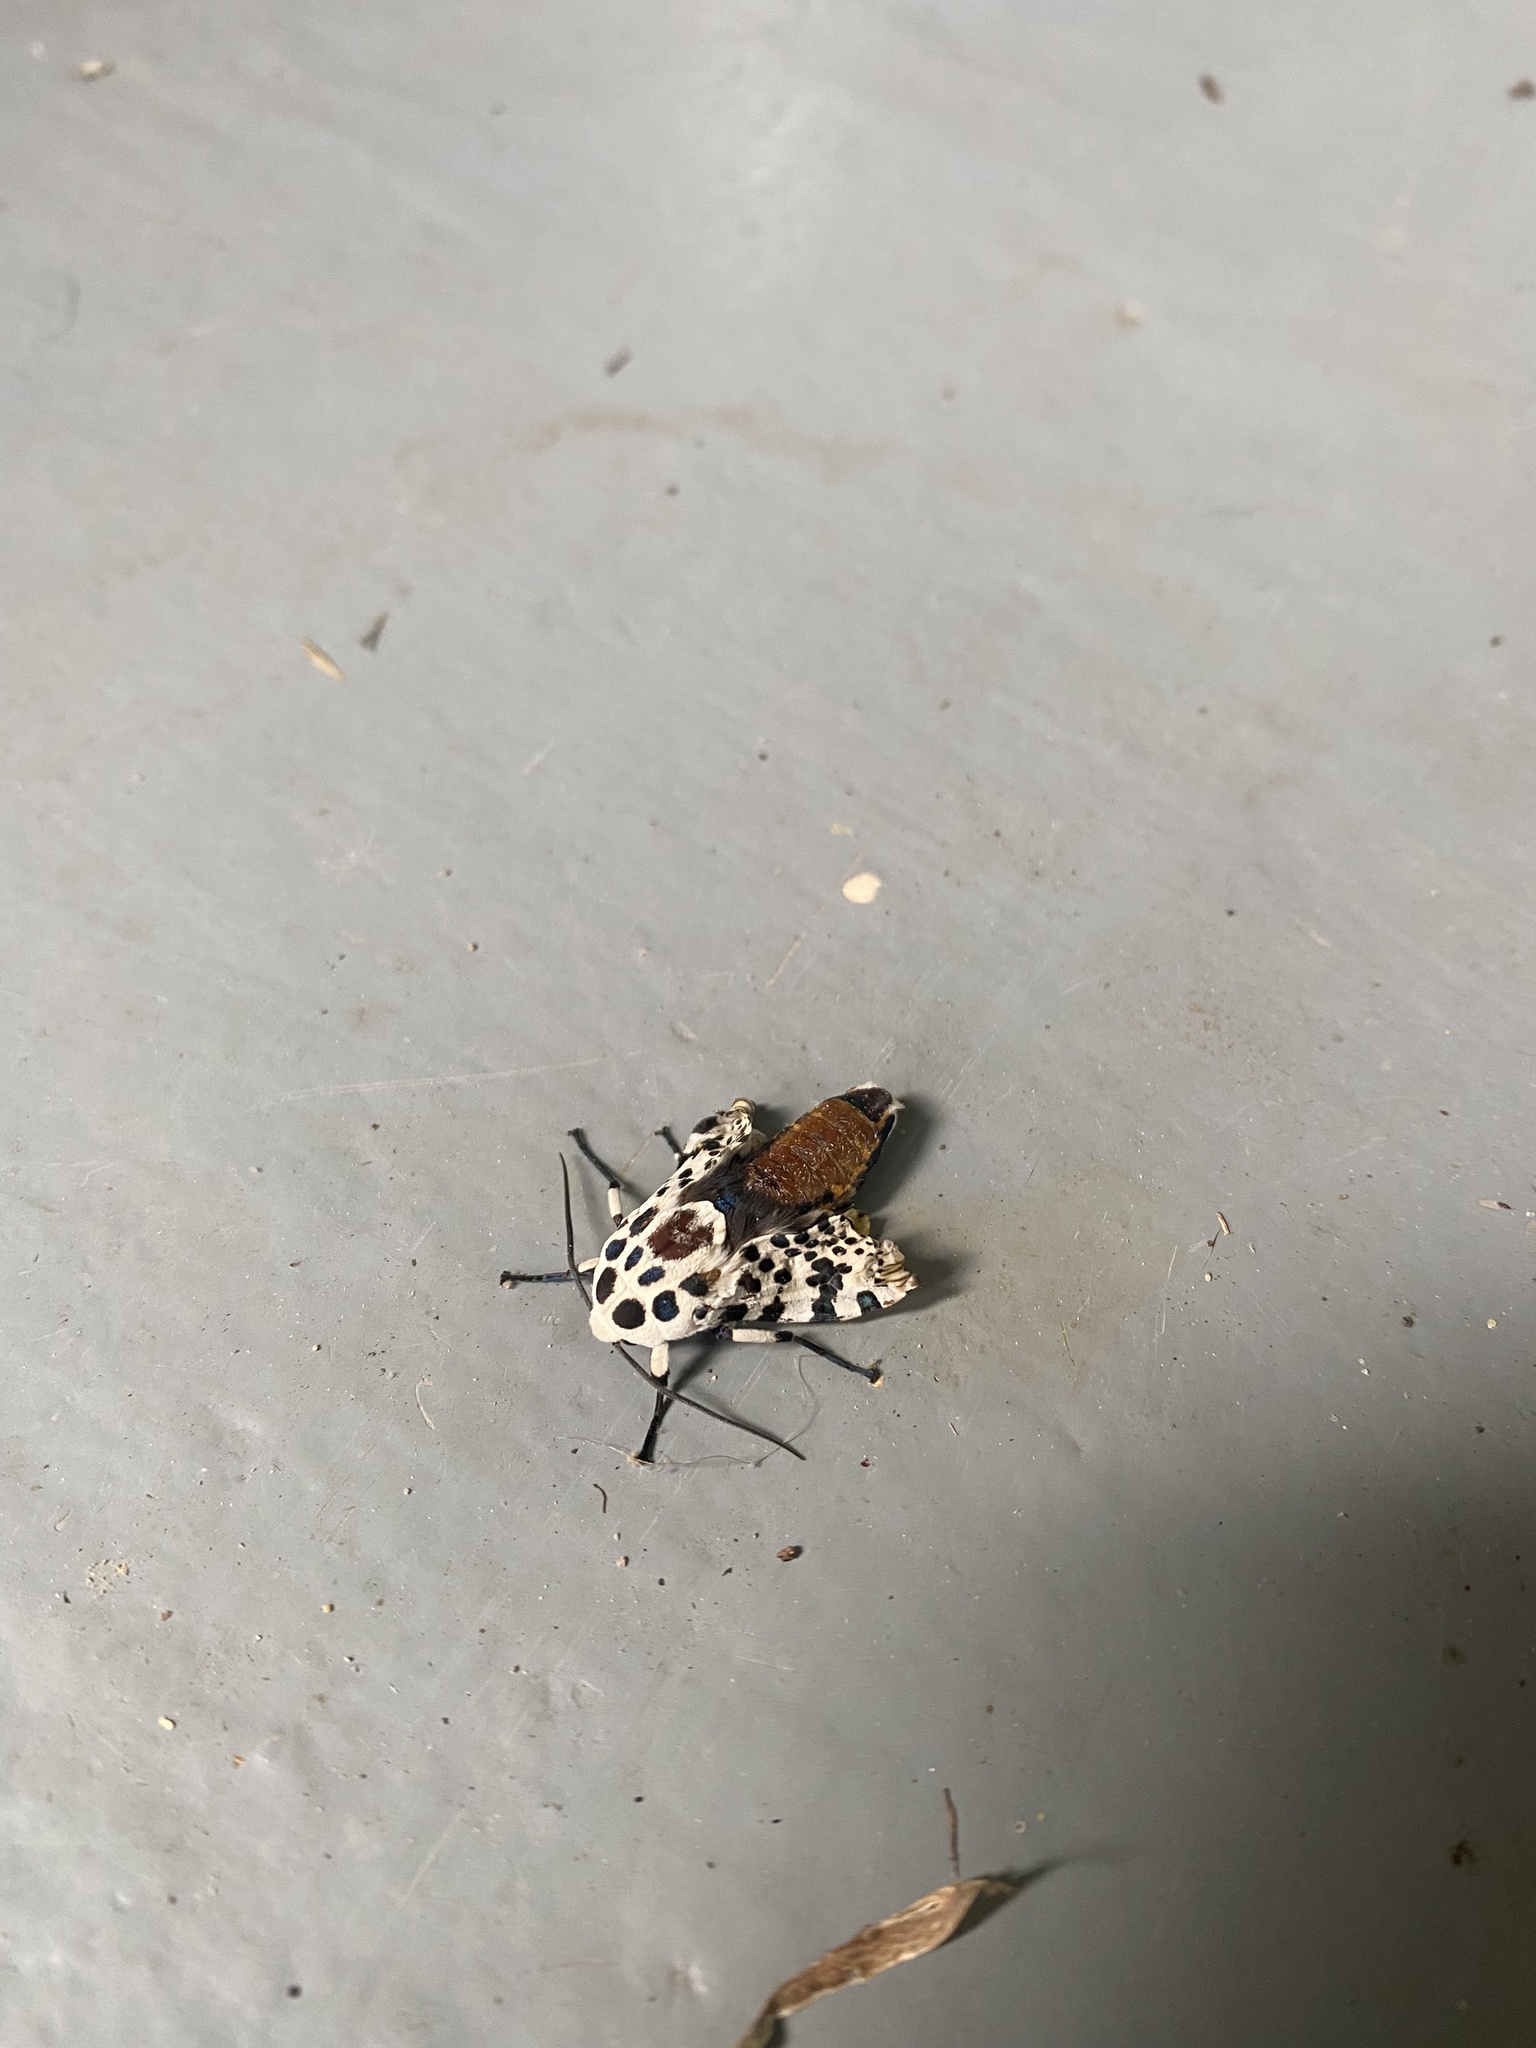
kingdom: Animalia
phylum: Arthropoda
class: Insecta
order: Lepidoptera
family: Erebidae
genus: Hypercompe
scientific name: Hypercompe scribonia
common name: Giant leopard moth
